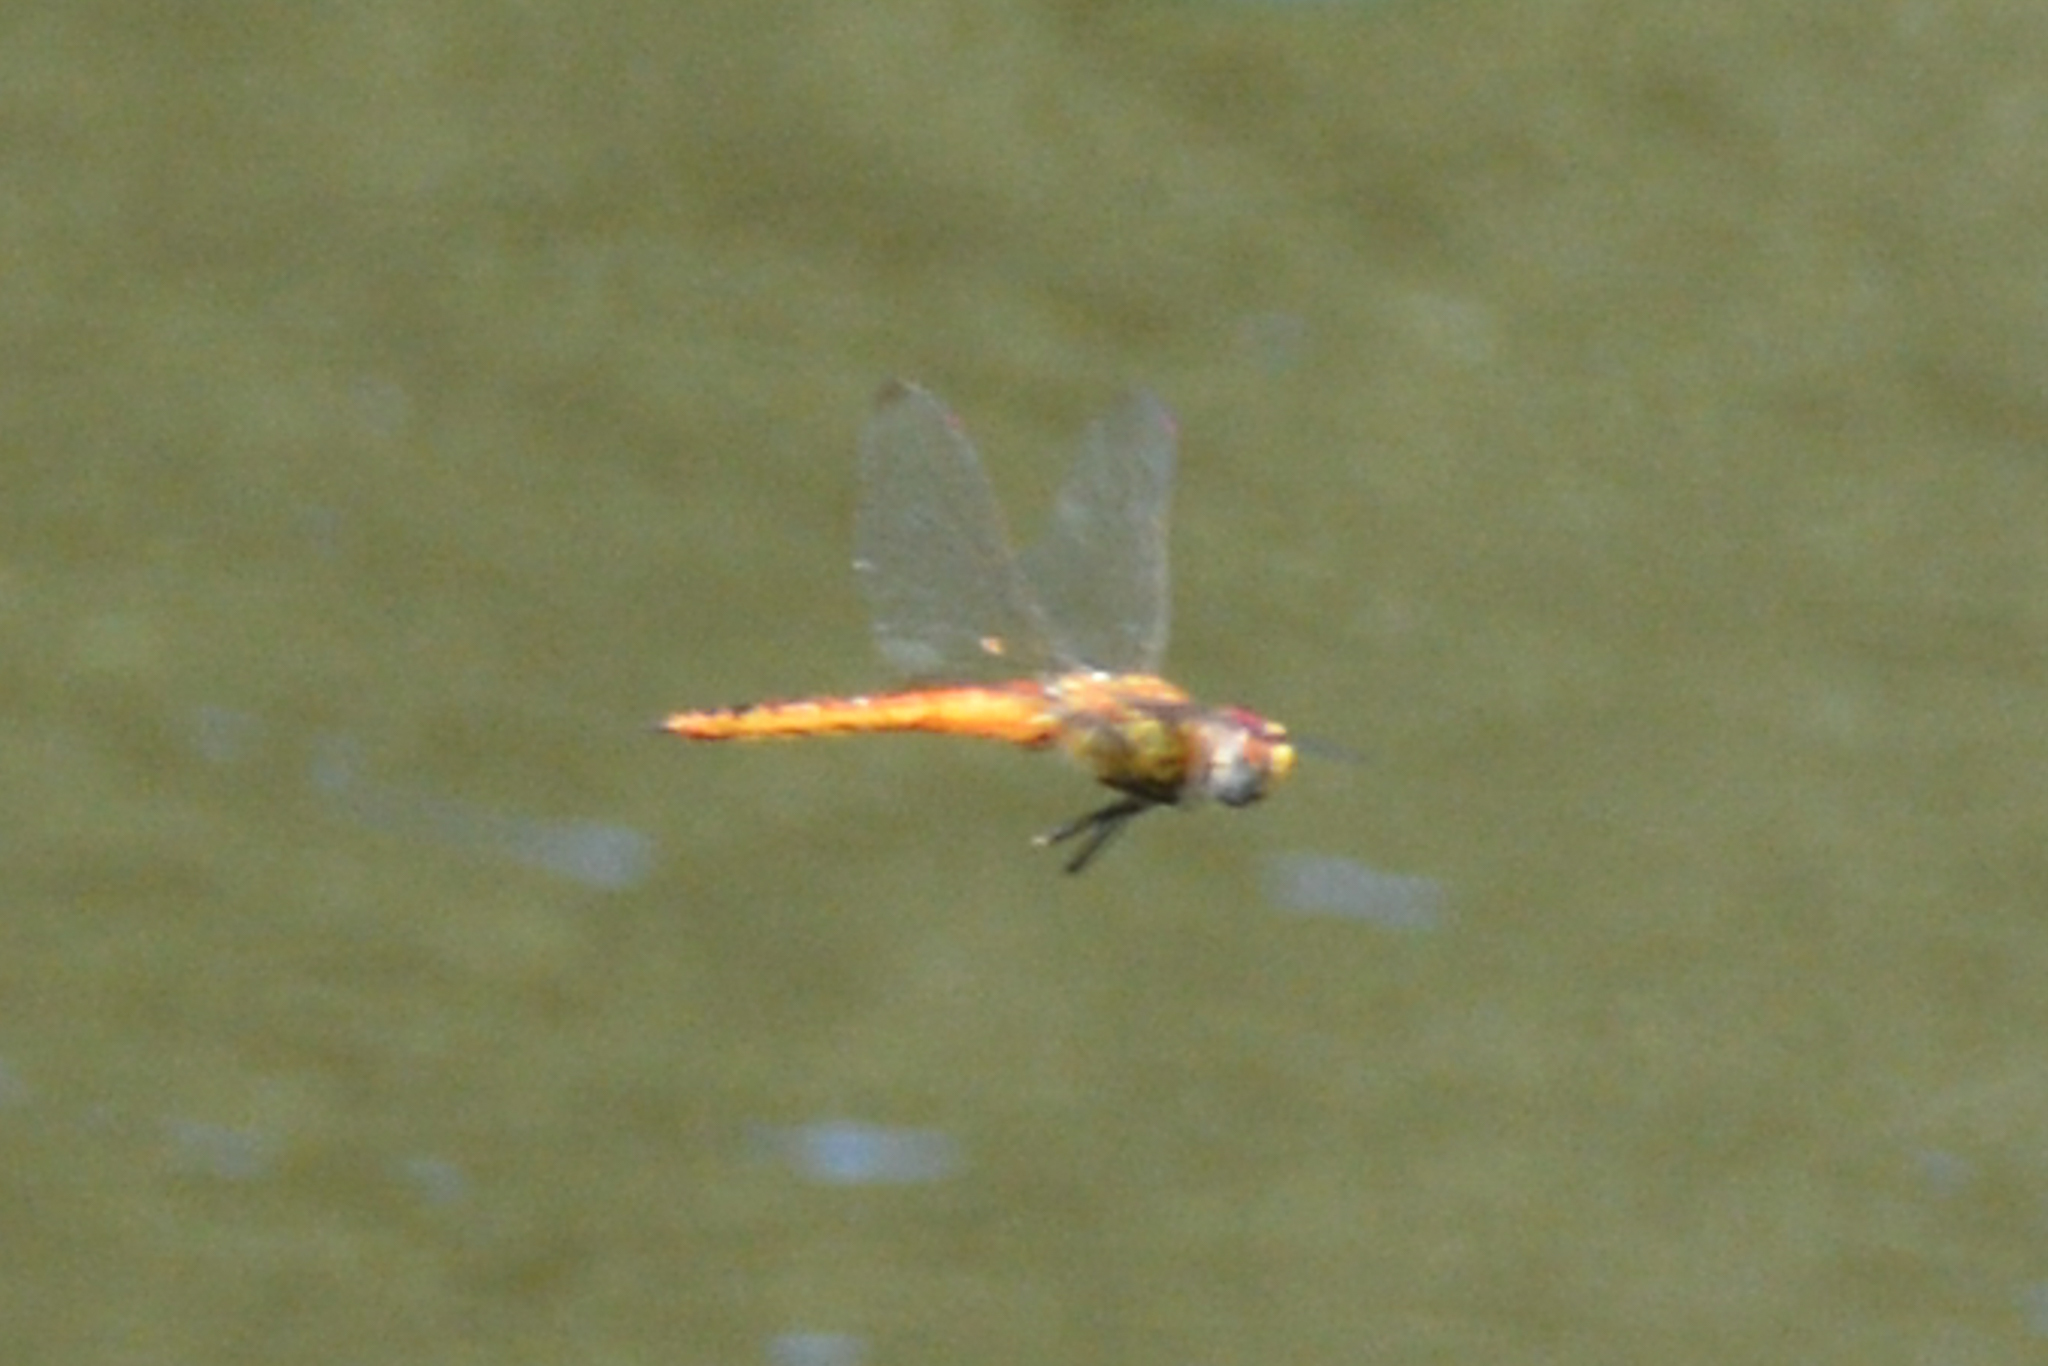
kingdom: Animalia
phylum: Arthropoda
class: Insecta
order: Odonata
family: Libellulidae
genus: Pantala
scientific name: Pantala flavescens
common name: Wandering glider
